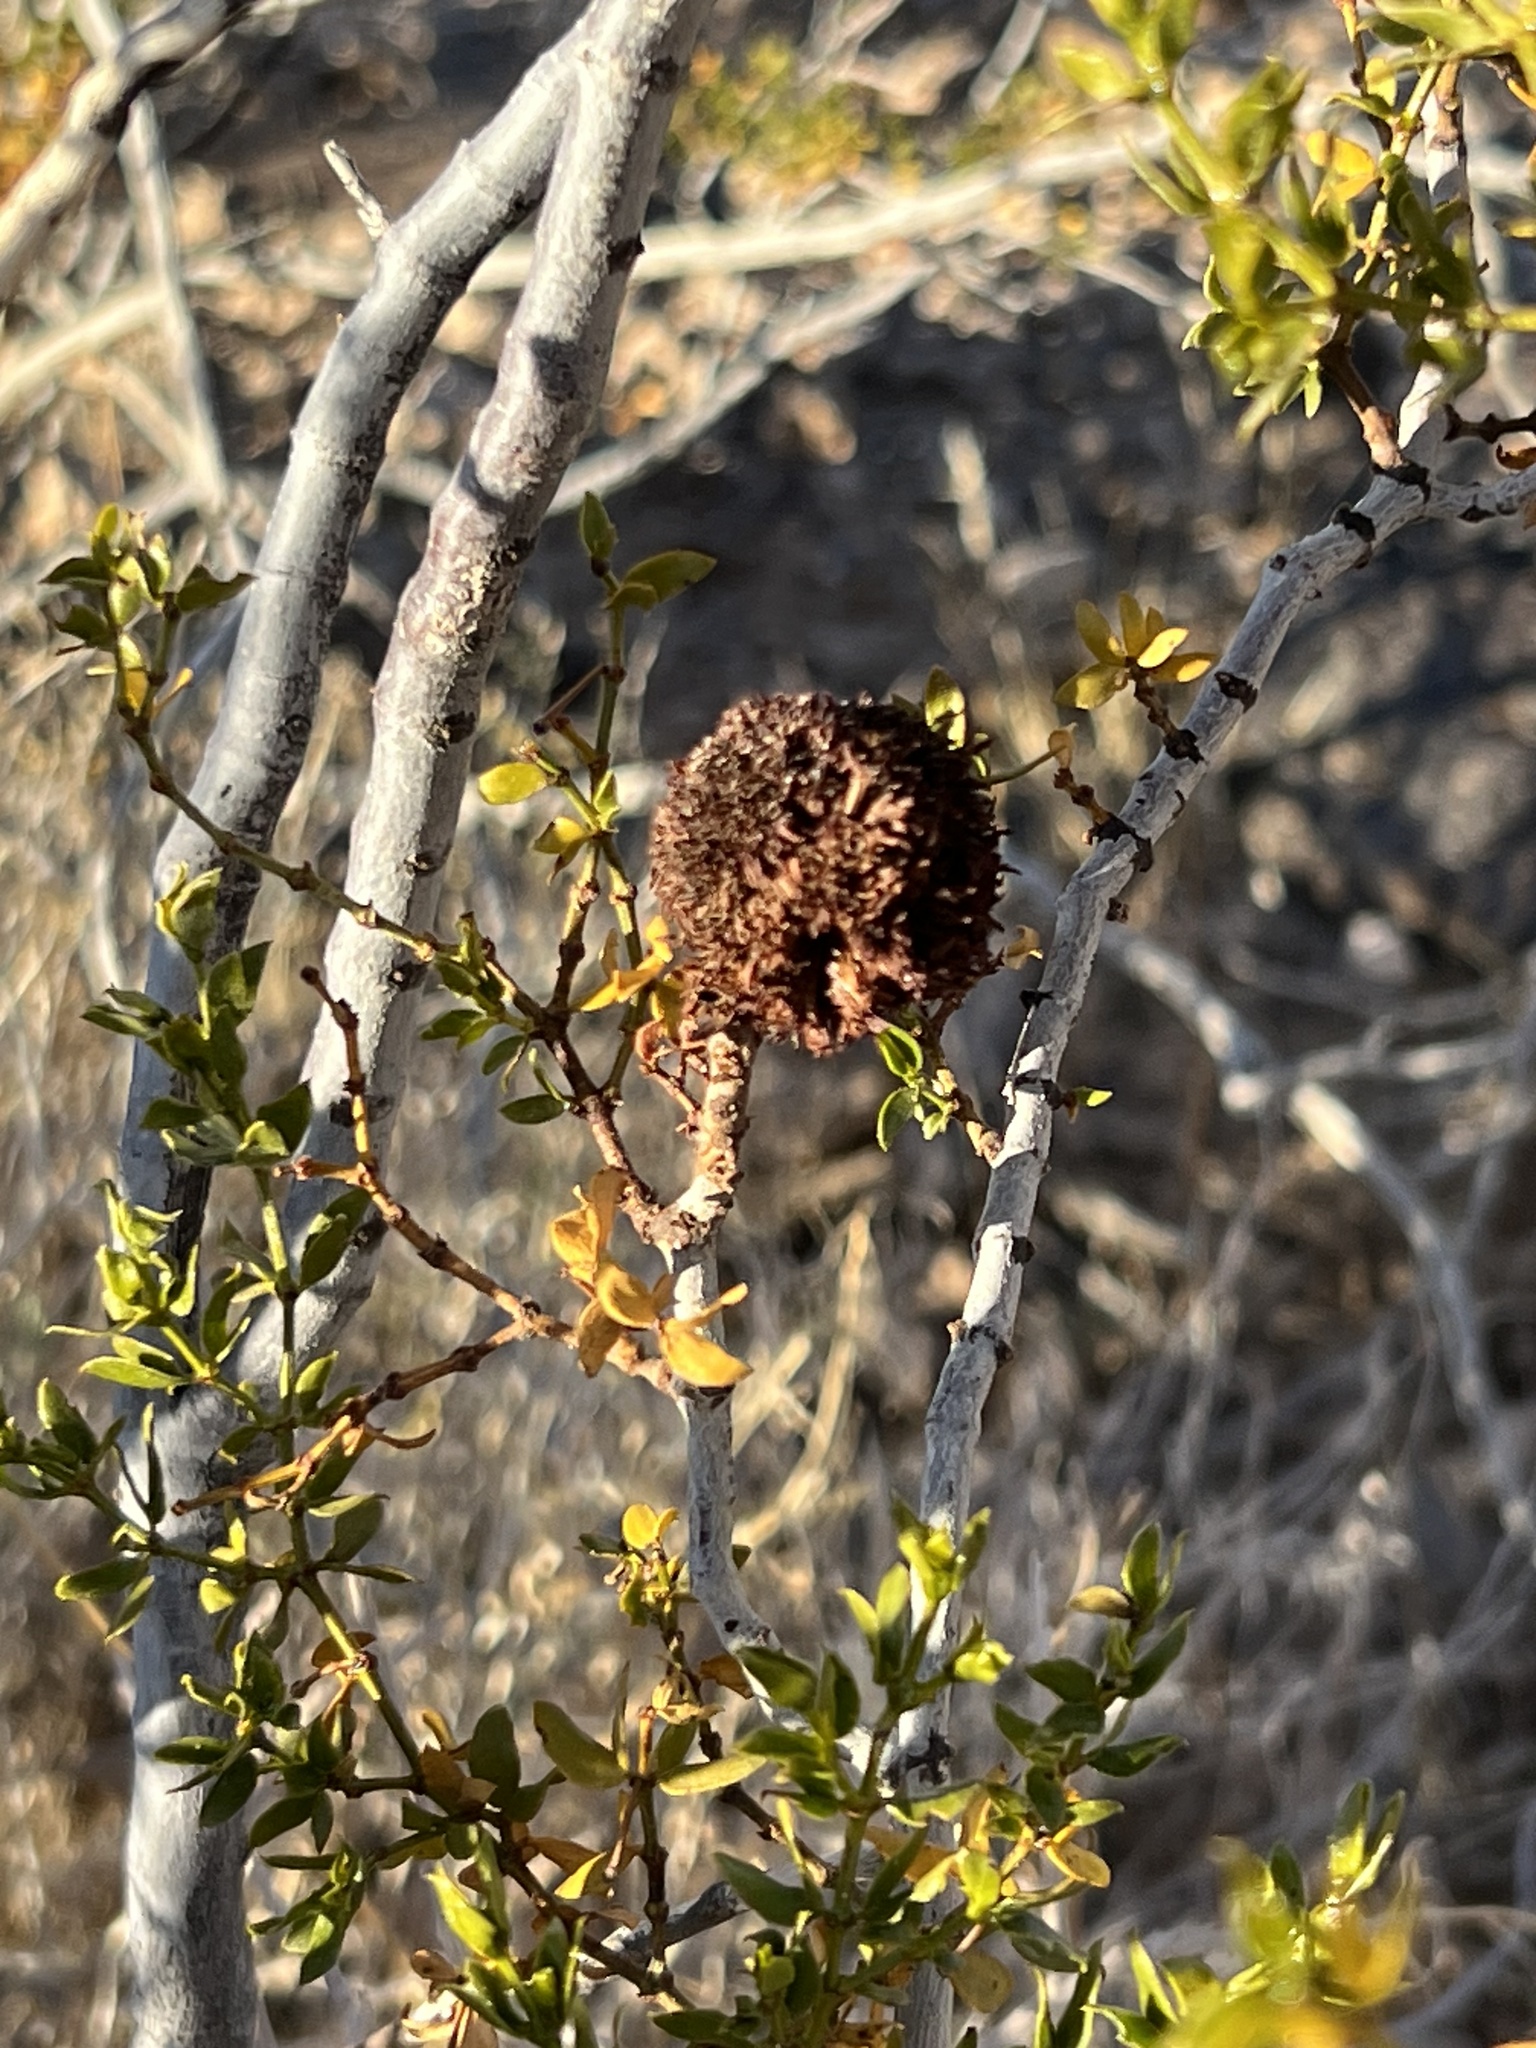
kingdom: Animalia
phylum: Arthropoda
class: Insecta
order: Diptera
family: Cecidomyiidae
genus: Asphondylia
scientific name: Asphondylia auripila
